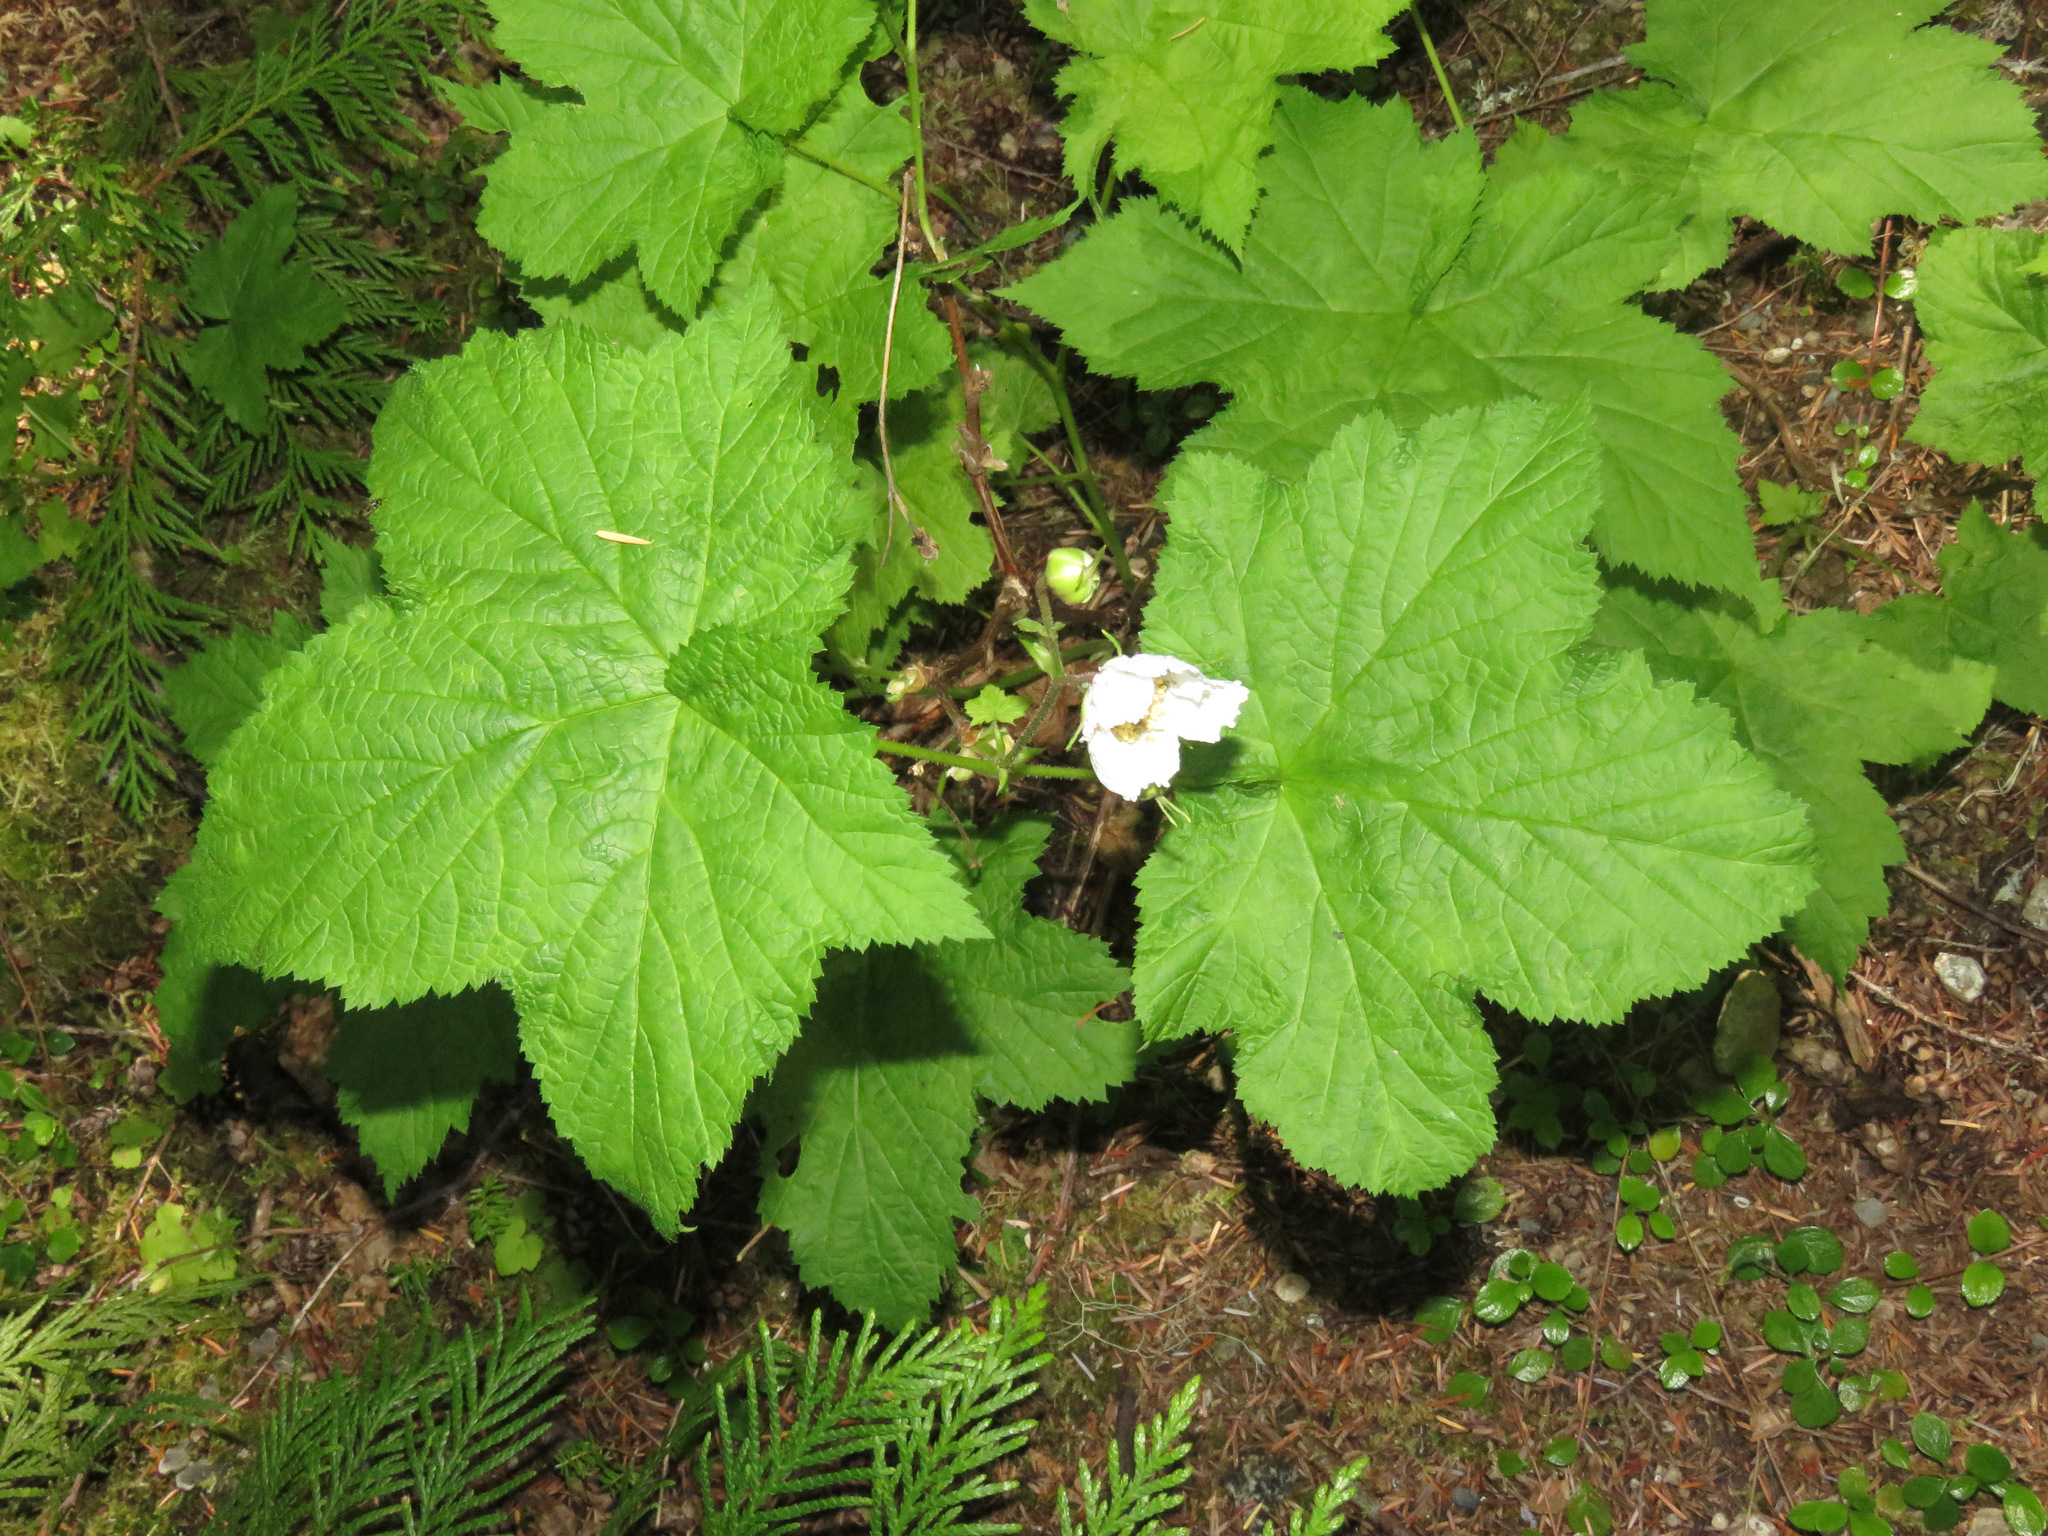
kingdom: Plantae
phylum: Tracheophyta
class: Magnoliopsida
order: Rosales
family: Rosaceae
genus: Rubus
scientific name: Rubus parviflorus
